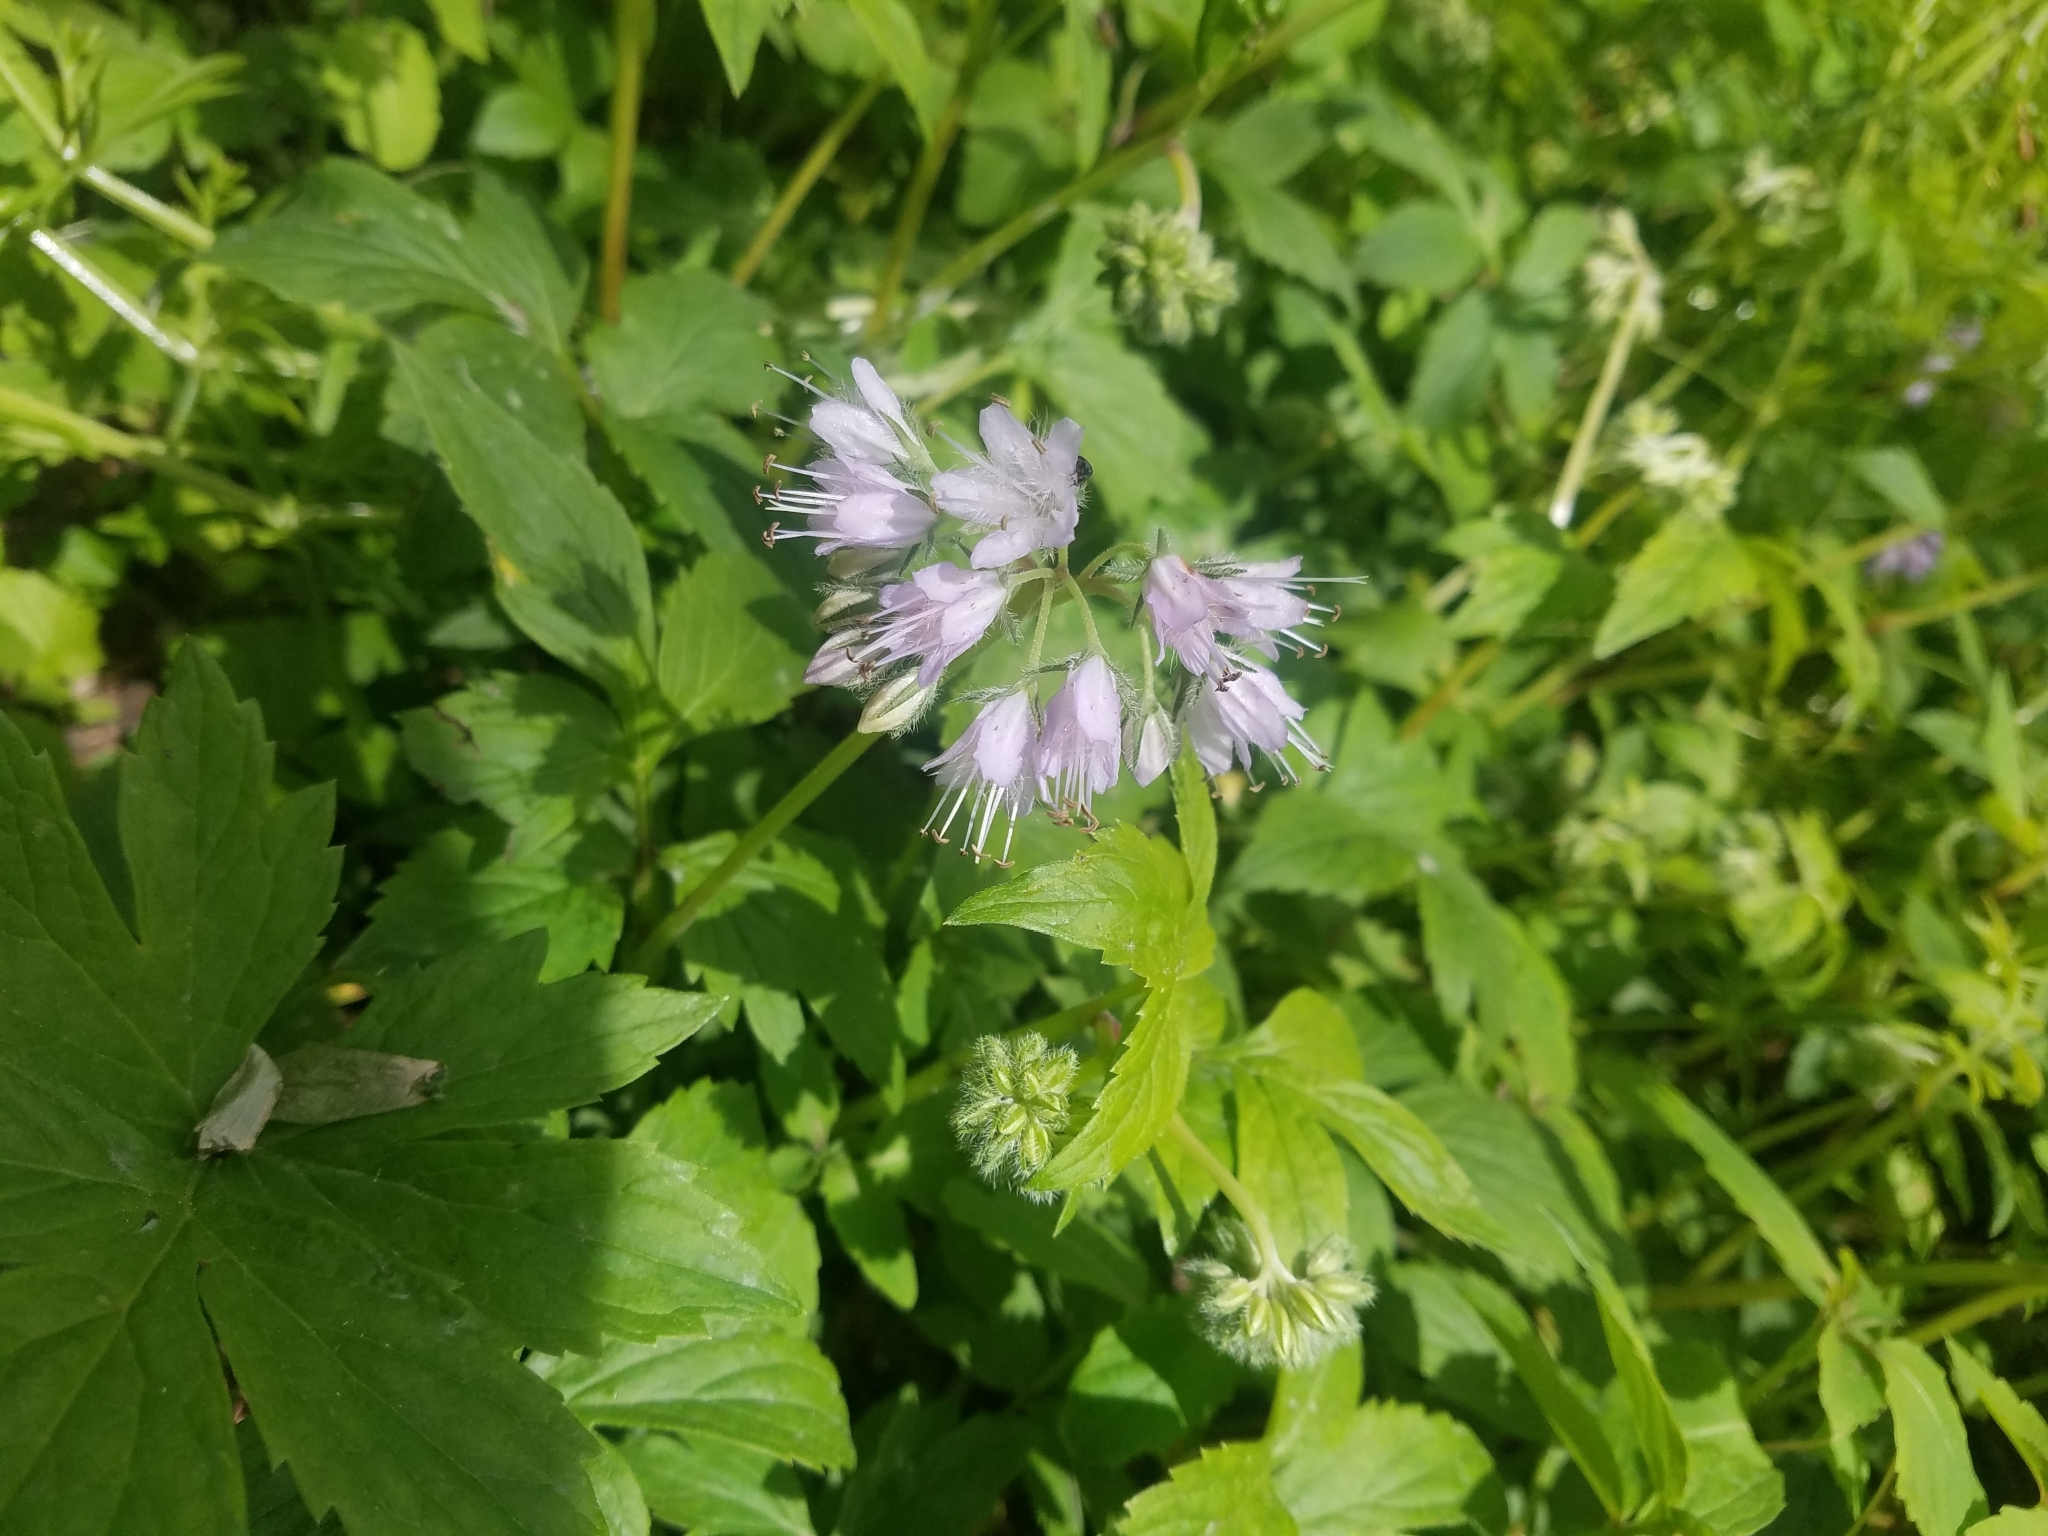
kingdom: Plantae
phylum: Tracheophyta
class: Magnoliopsida
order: Boraginales
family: Hydrophyllaceae
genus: Hydrophyllum
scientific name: Hydrophyllum virginianum
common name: Virginia waterleaf
